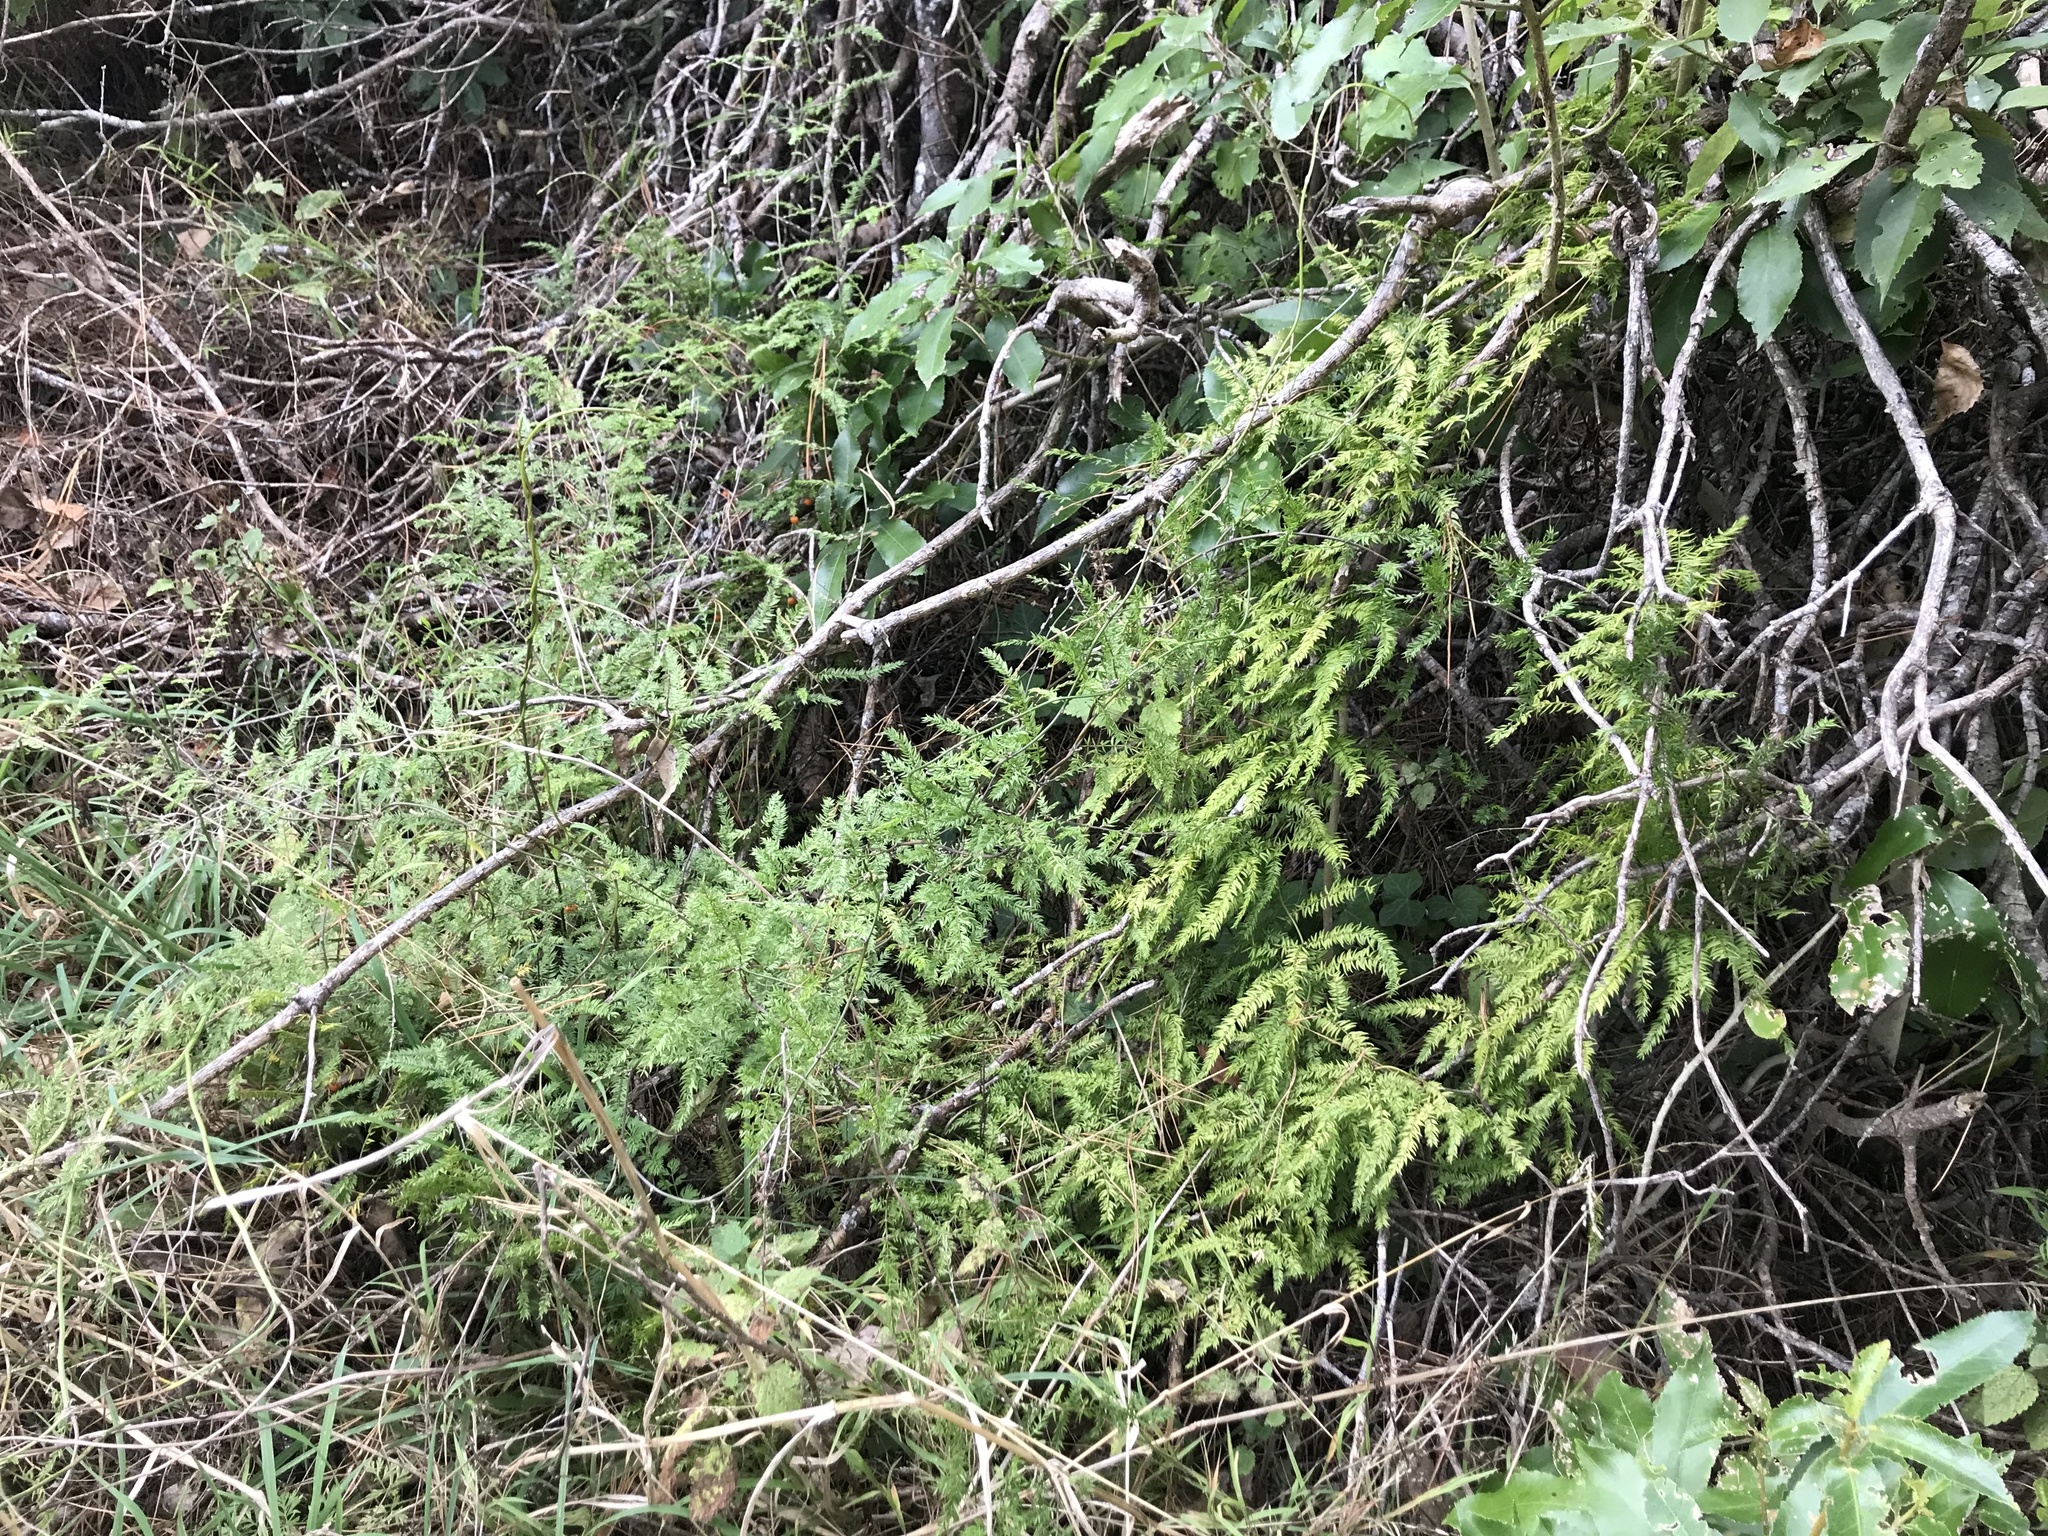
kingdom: Plantae
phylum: Tracheophyta
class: Liliopsida
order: Asparagales
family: Asparagaceae
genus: Asparagus
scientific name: Asparagus scandens
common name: Asparagus-fern
